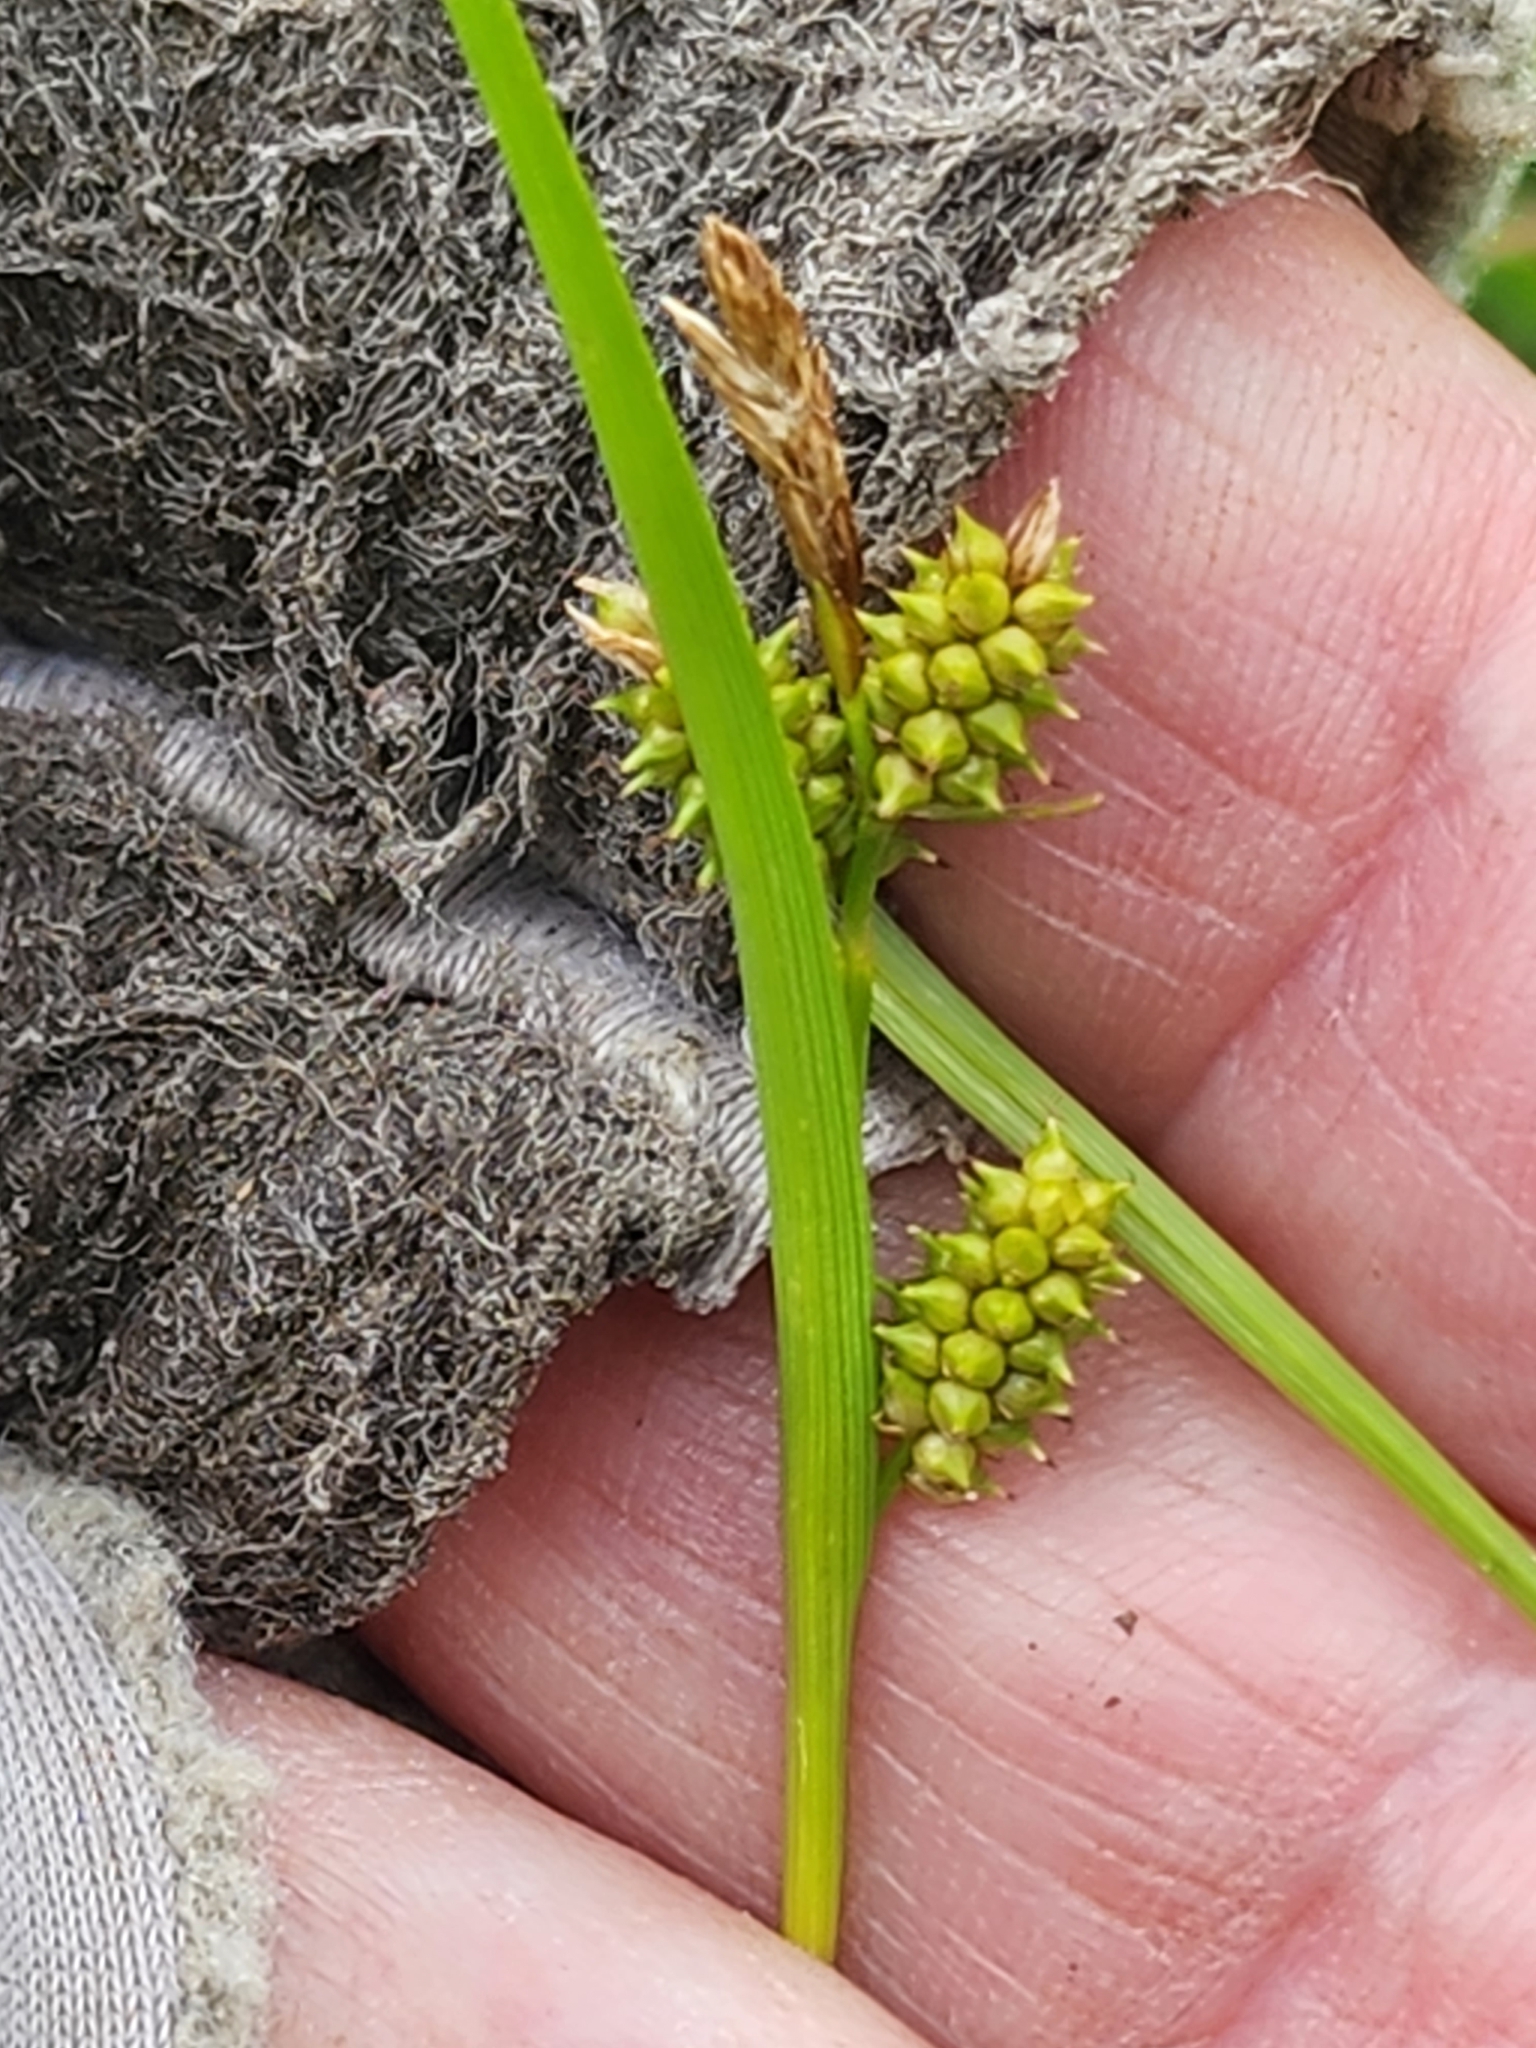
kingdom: Plantae
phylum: Tracheophyta
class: Liliopsida
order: Poales
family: Cyperaceae
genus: Carex
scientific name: Carex
